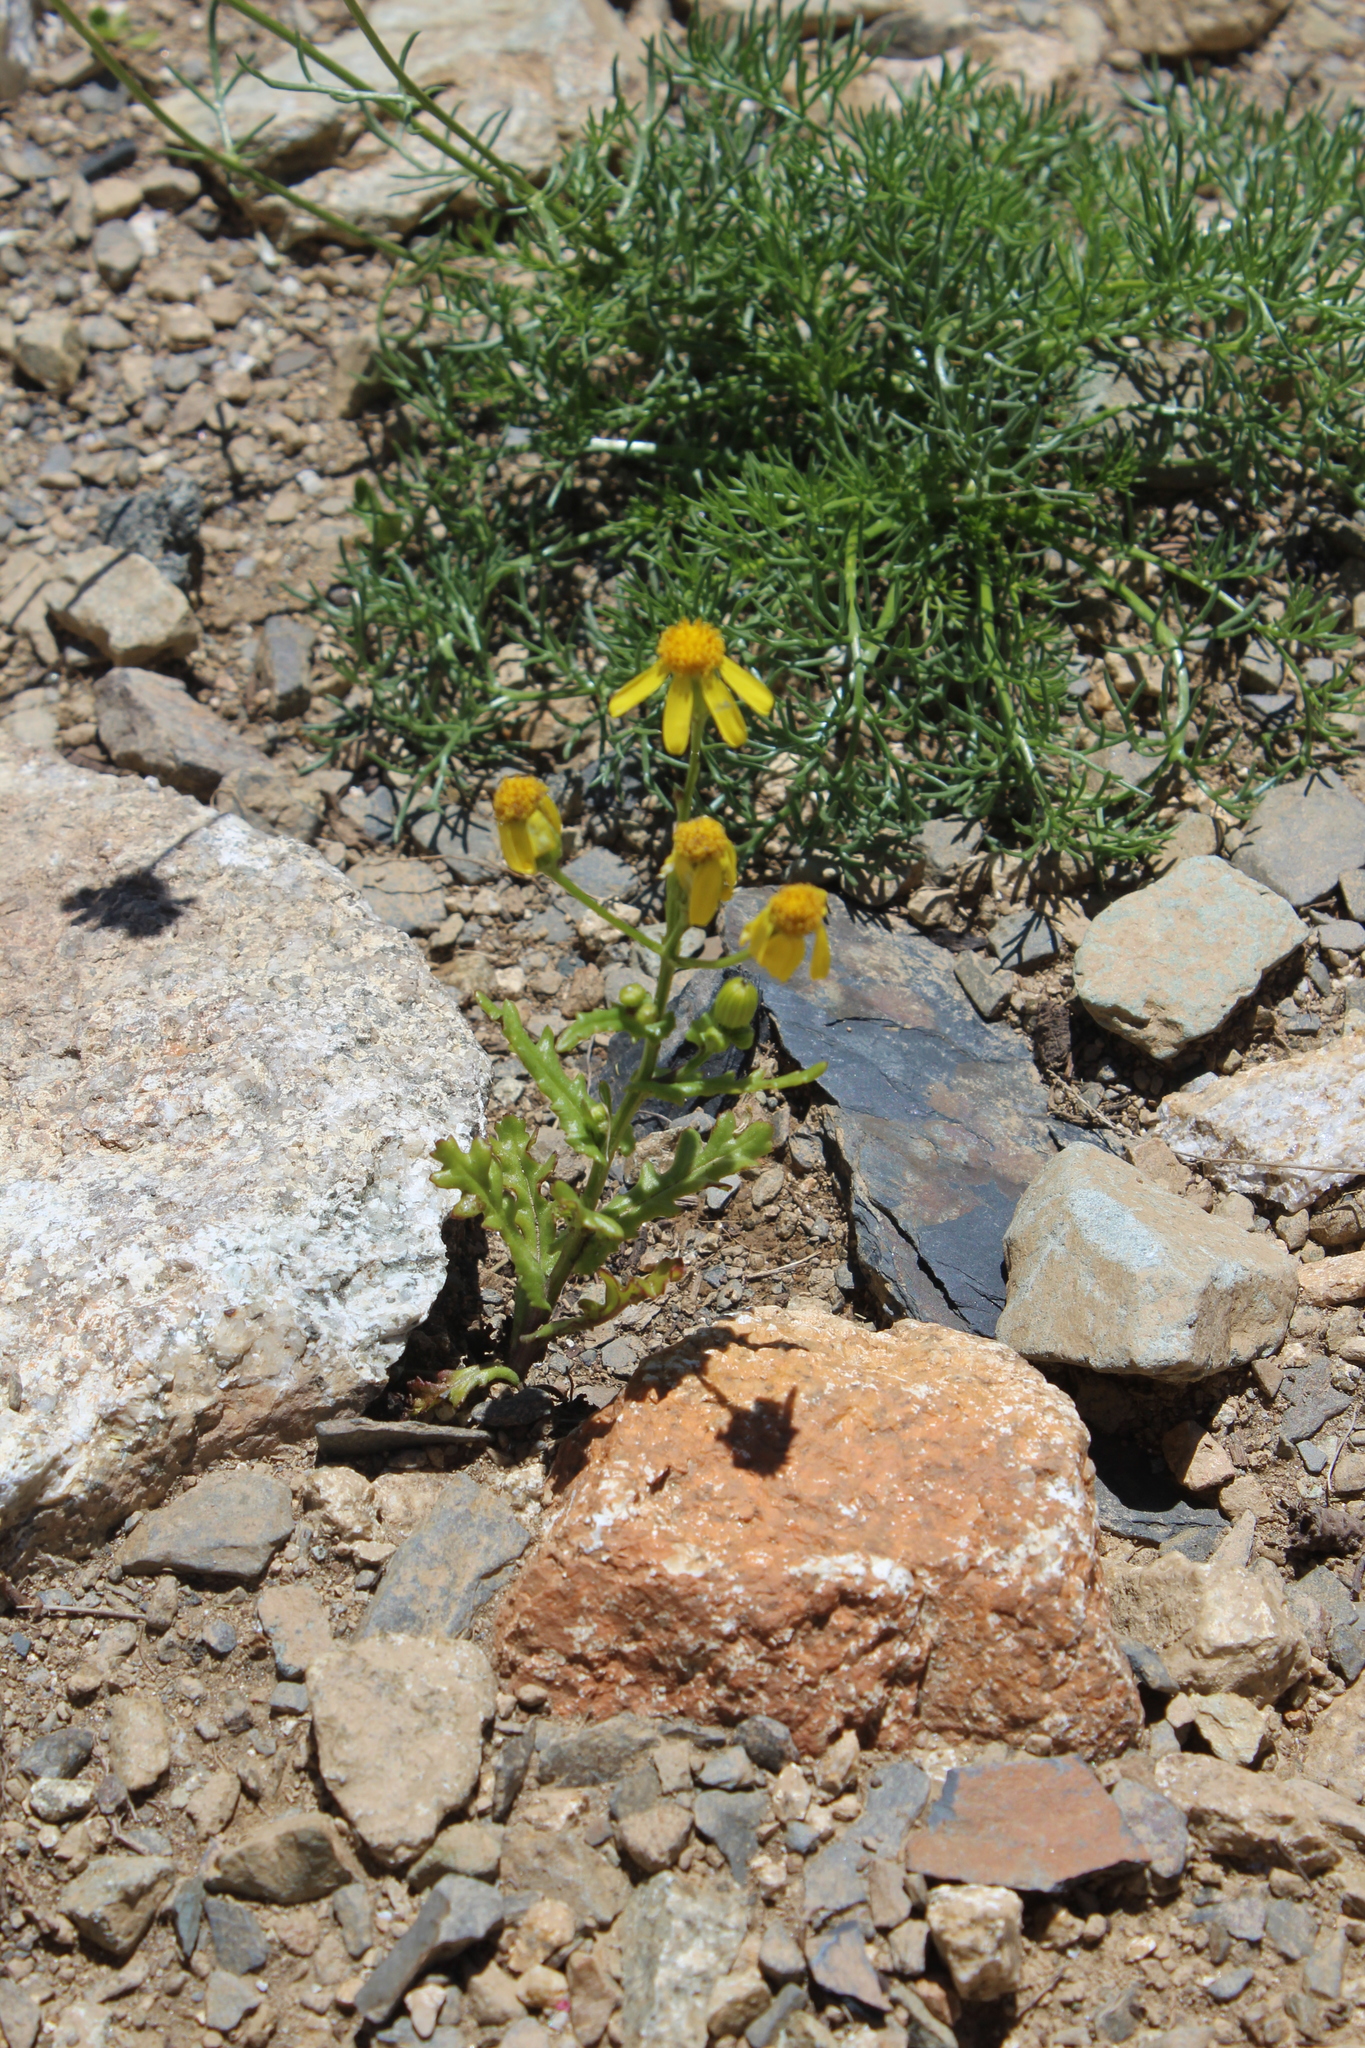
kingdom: Plantae
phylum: Tracheophyta
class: Magnoliopsida
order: Asterales
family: Asteraceae
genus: Senecio
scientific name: Senecio vernalis
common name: Eastern groundsel
